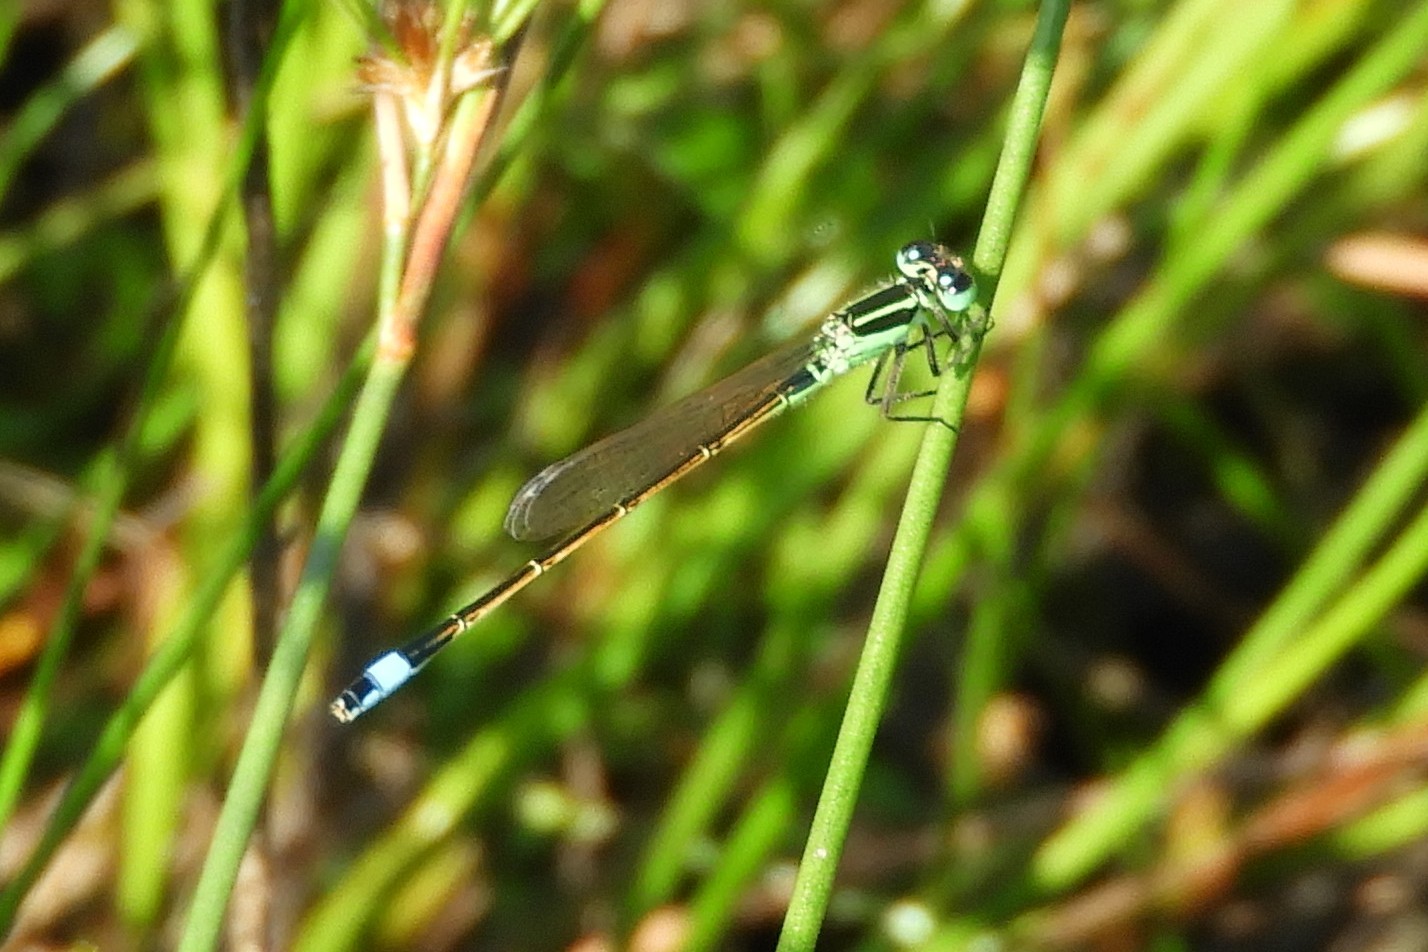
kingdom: Animalia
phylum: Arthropoda
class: Insecta
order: Odonata
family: Coenagrionidae
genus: Ischnura
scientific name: Ischnura ramburii
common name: Rambur's forktail
